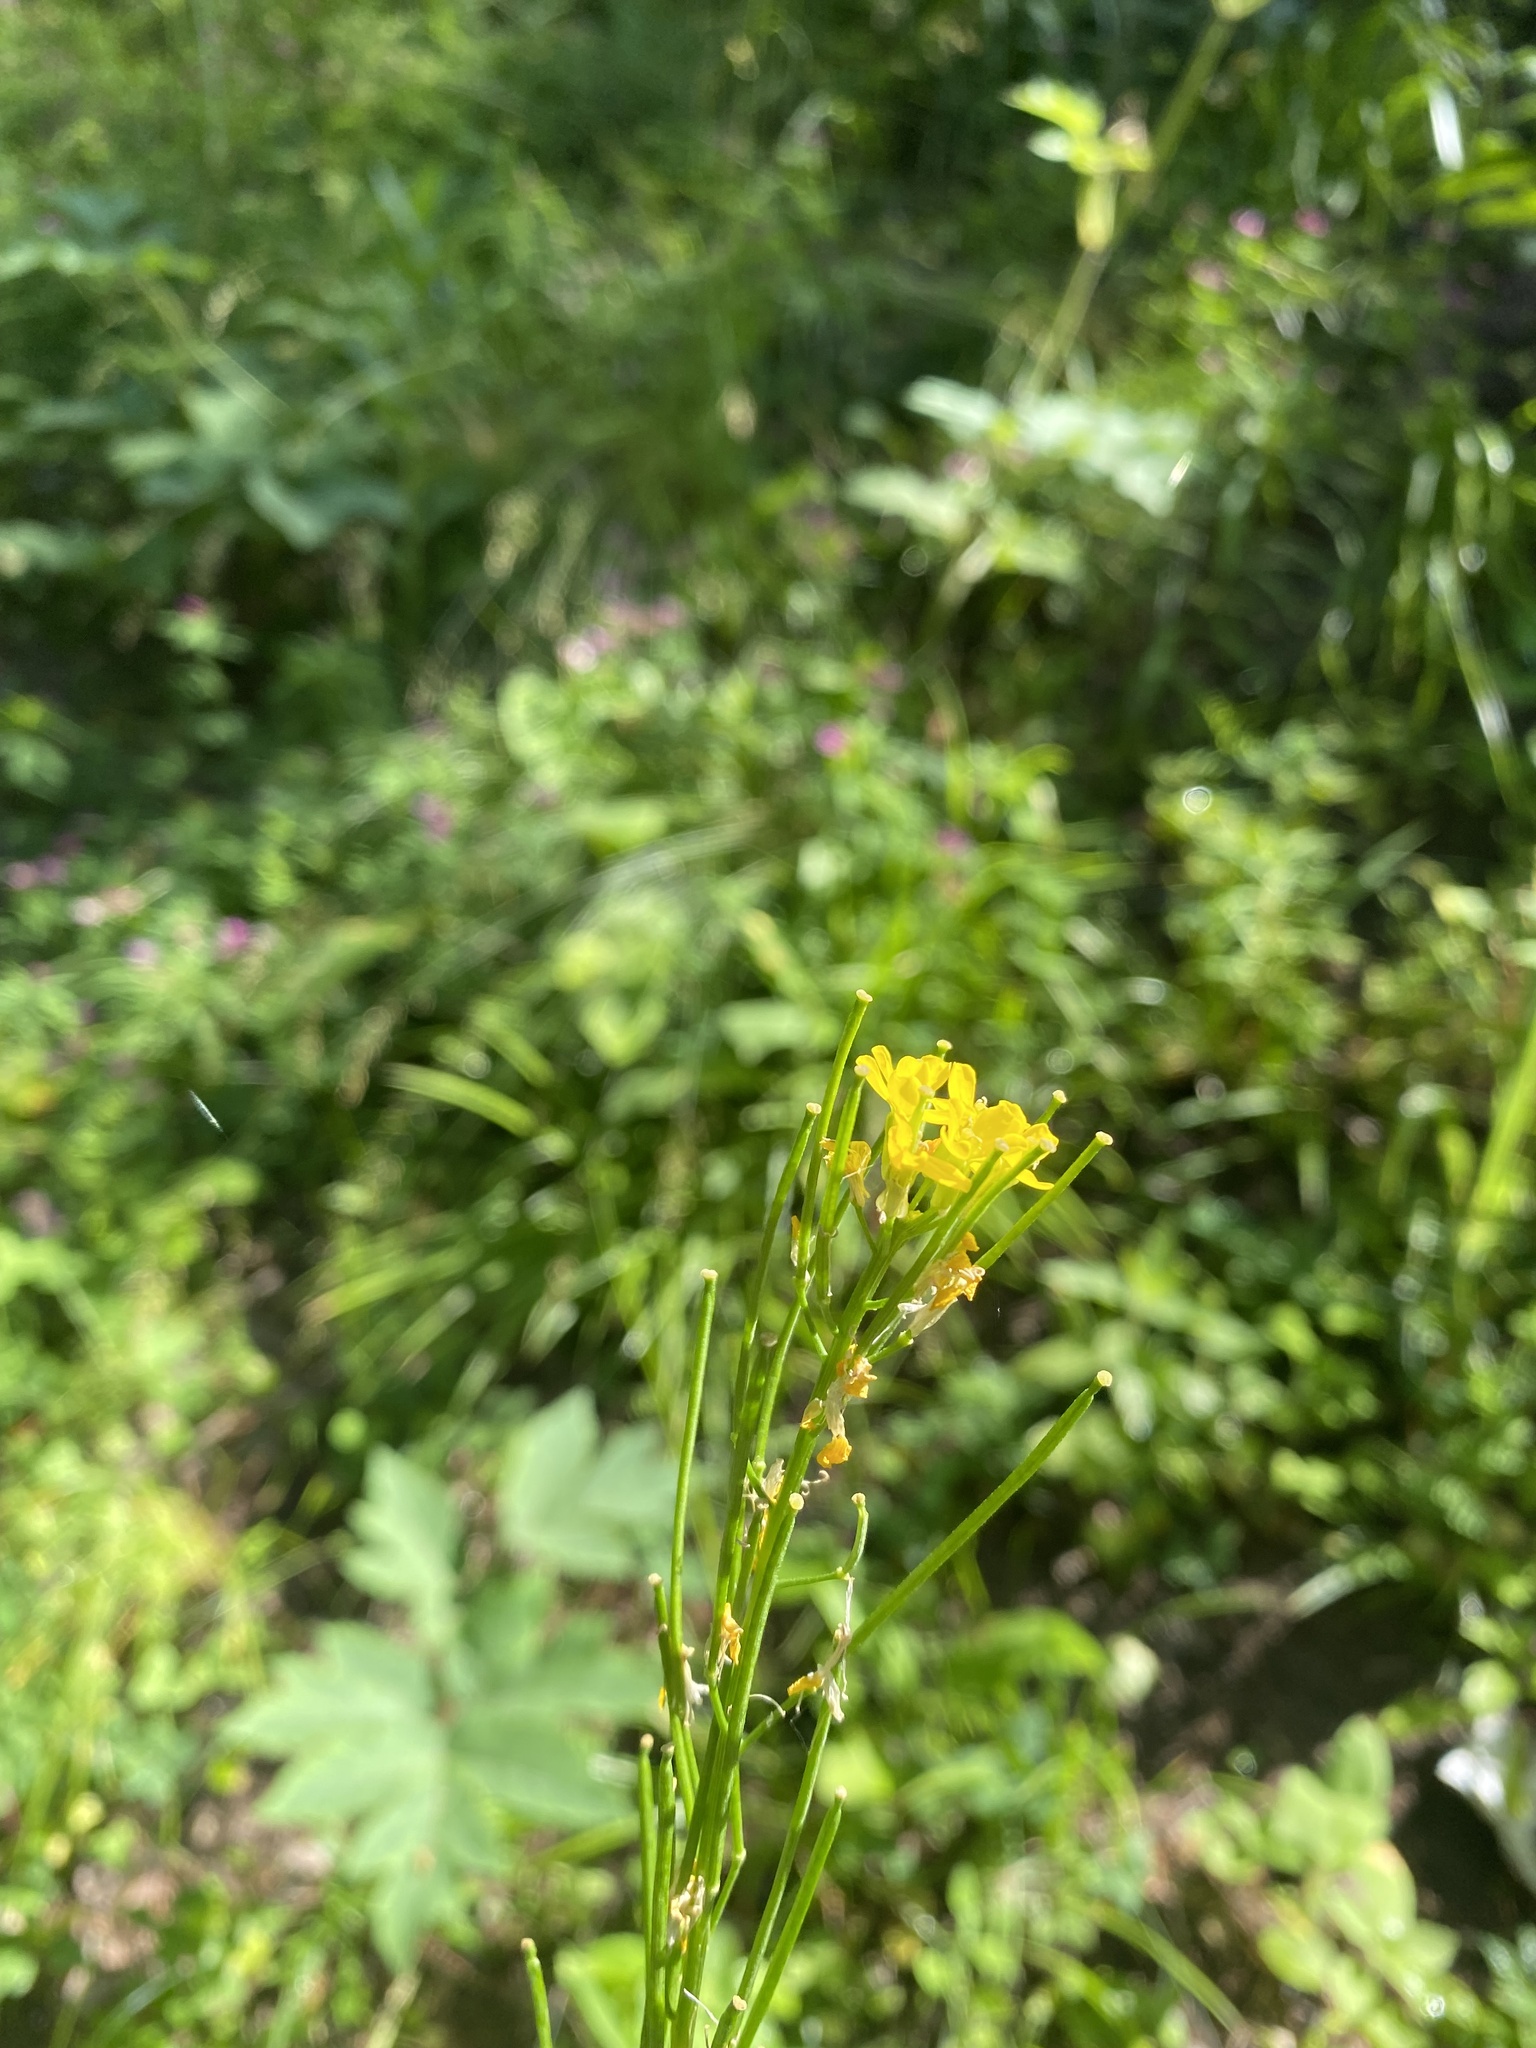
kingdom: Plantae
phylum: Tracheophyta
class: Magnoliopsida
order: Brassicales
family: Brassicaceae
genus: Erysimum
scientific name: Erysimum hieraciifolium
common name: European wallflower
